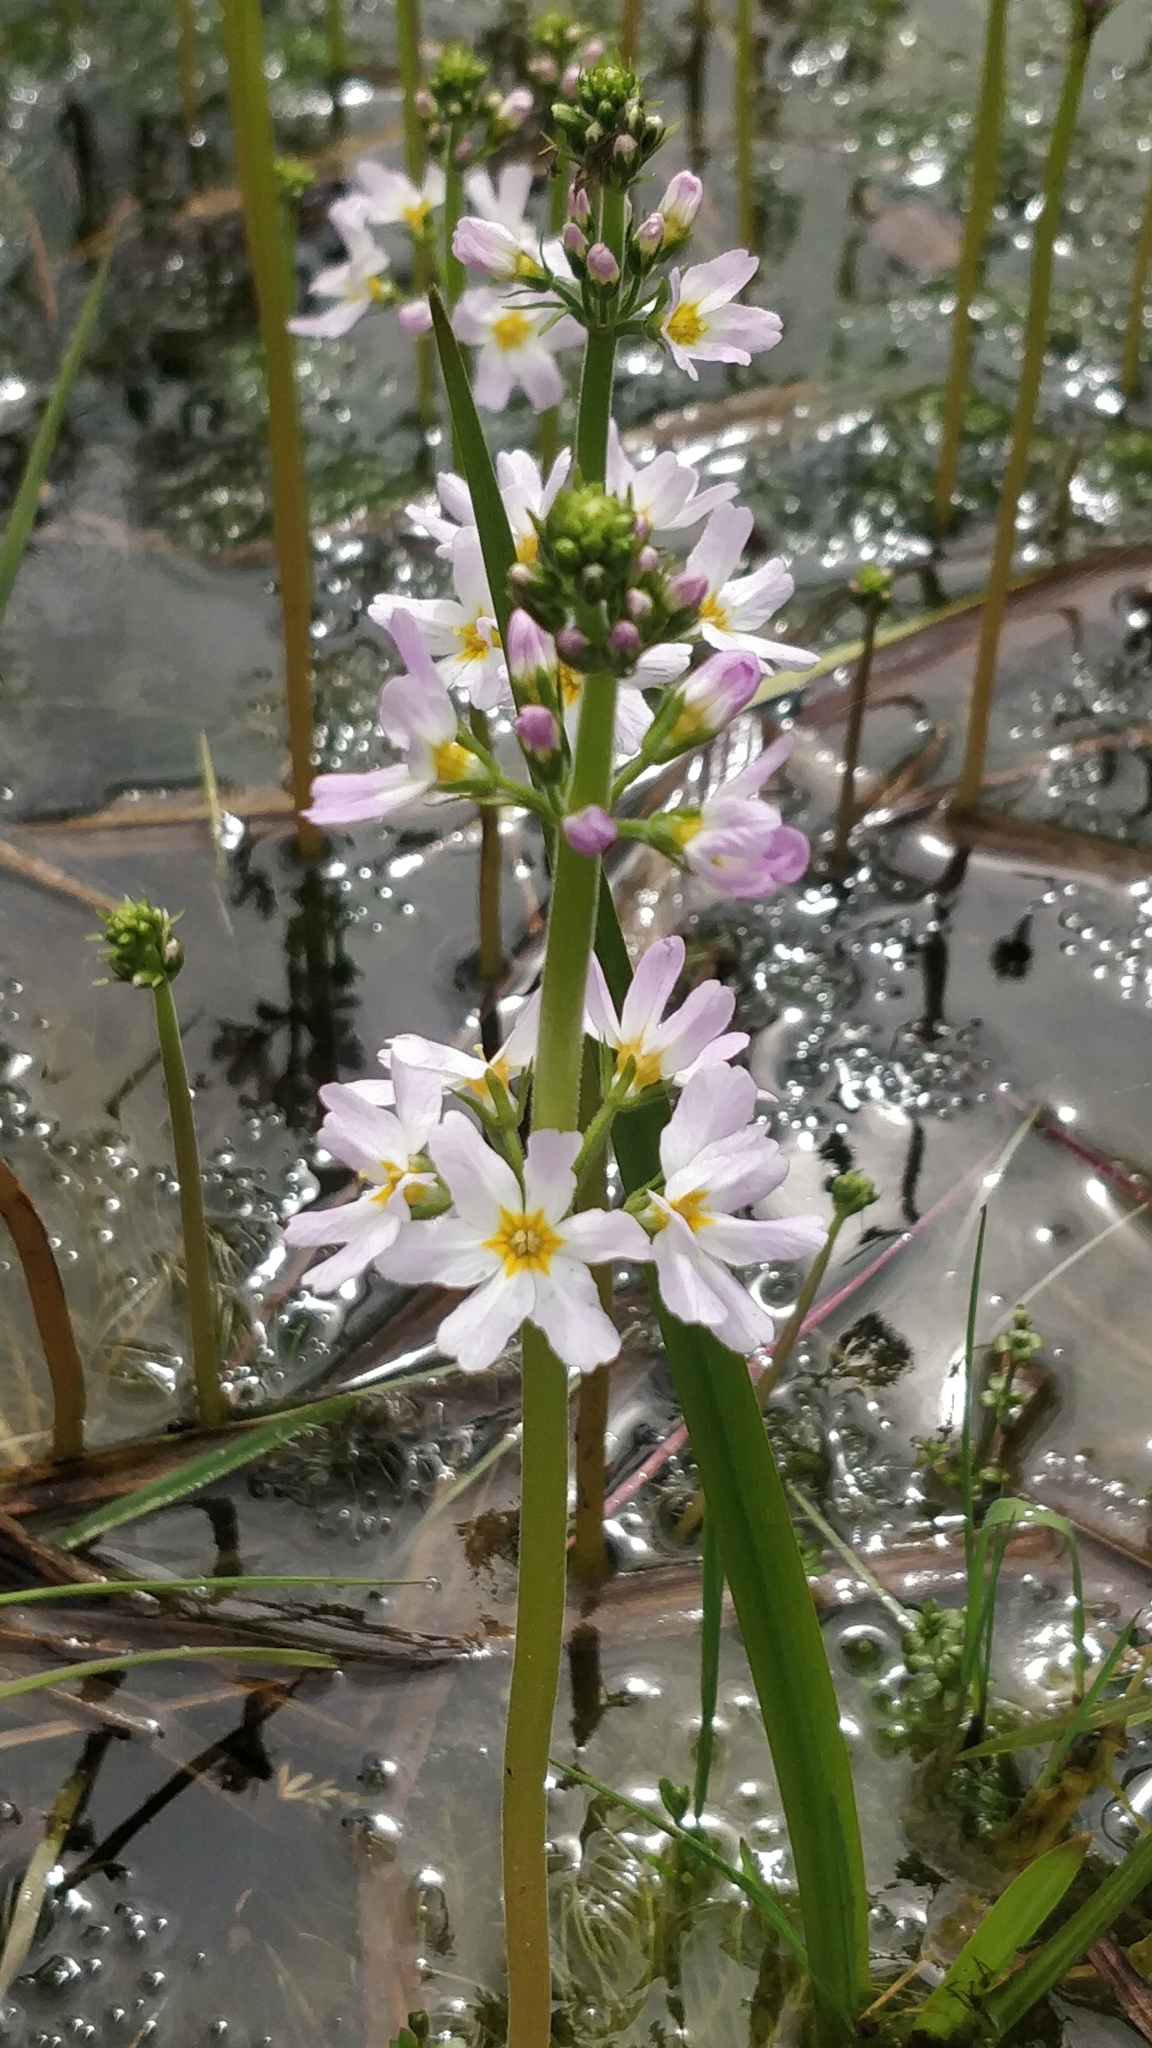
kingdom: Plantae
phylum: Tracheophyta
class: Magnoliopsida
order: Ericales
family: Primulaceae
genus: Hottonia
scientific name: Hottonia palustris
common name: Water-violet
